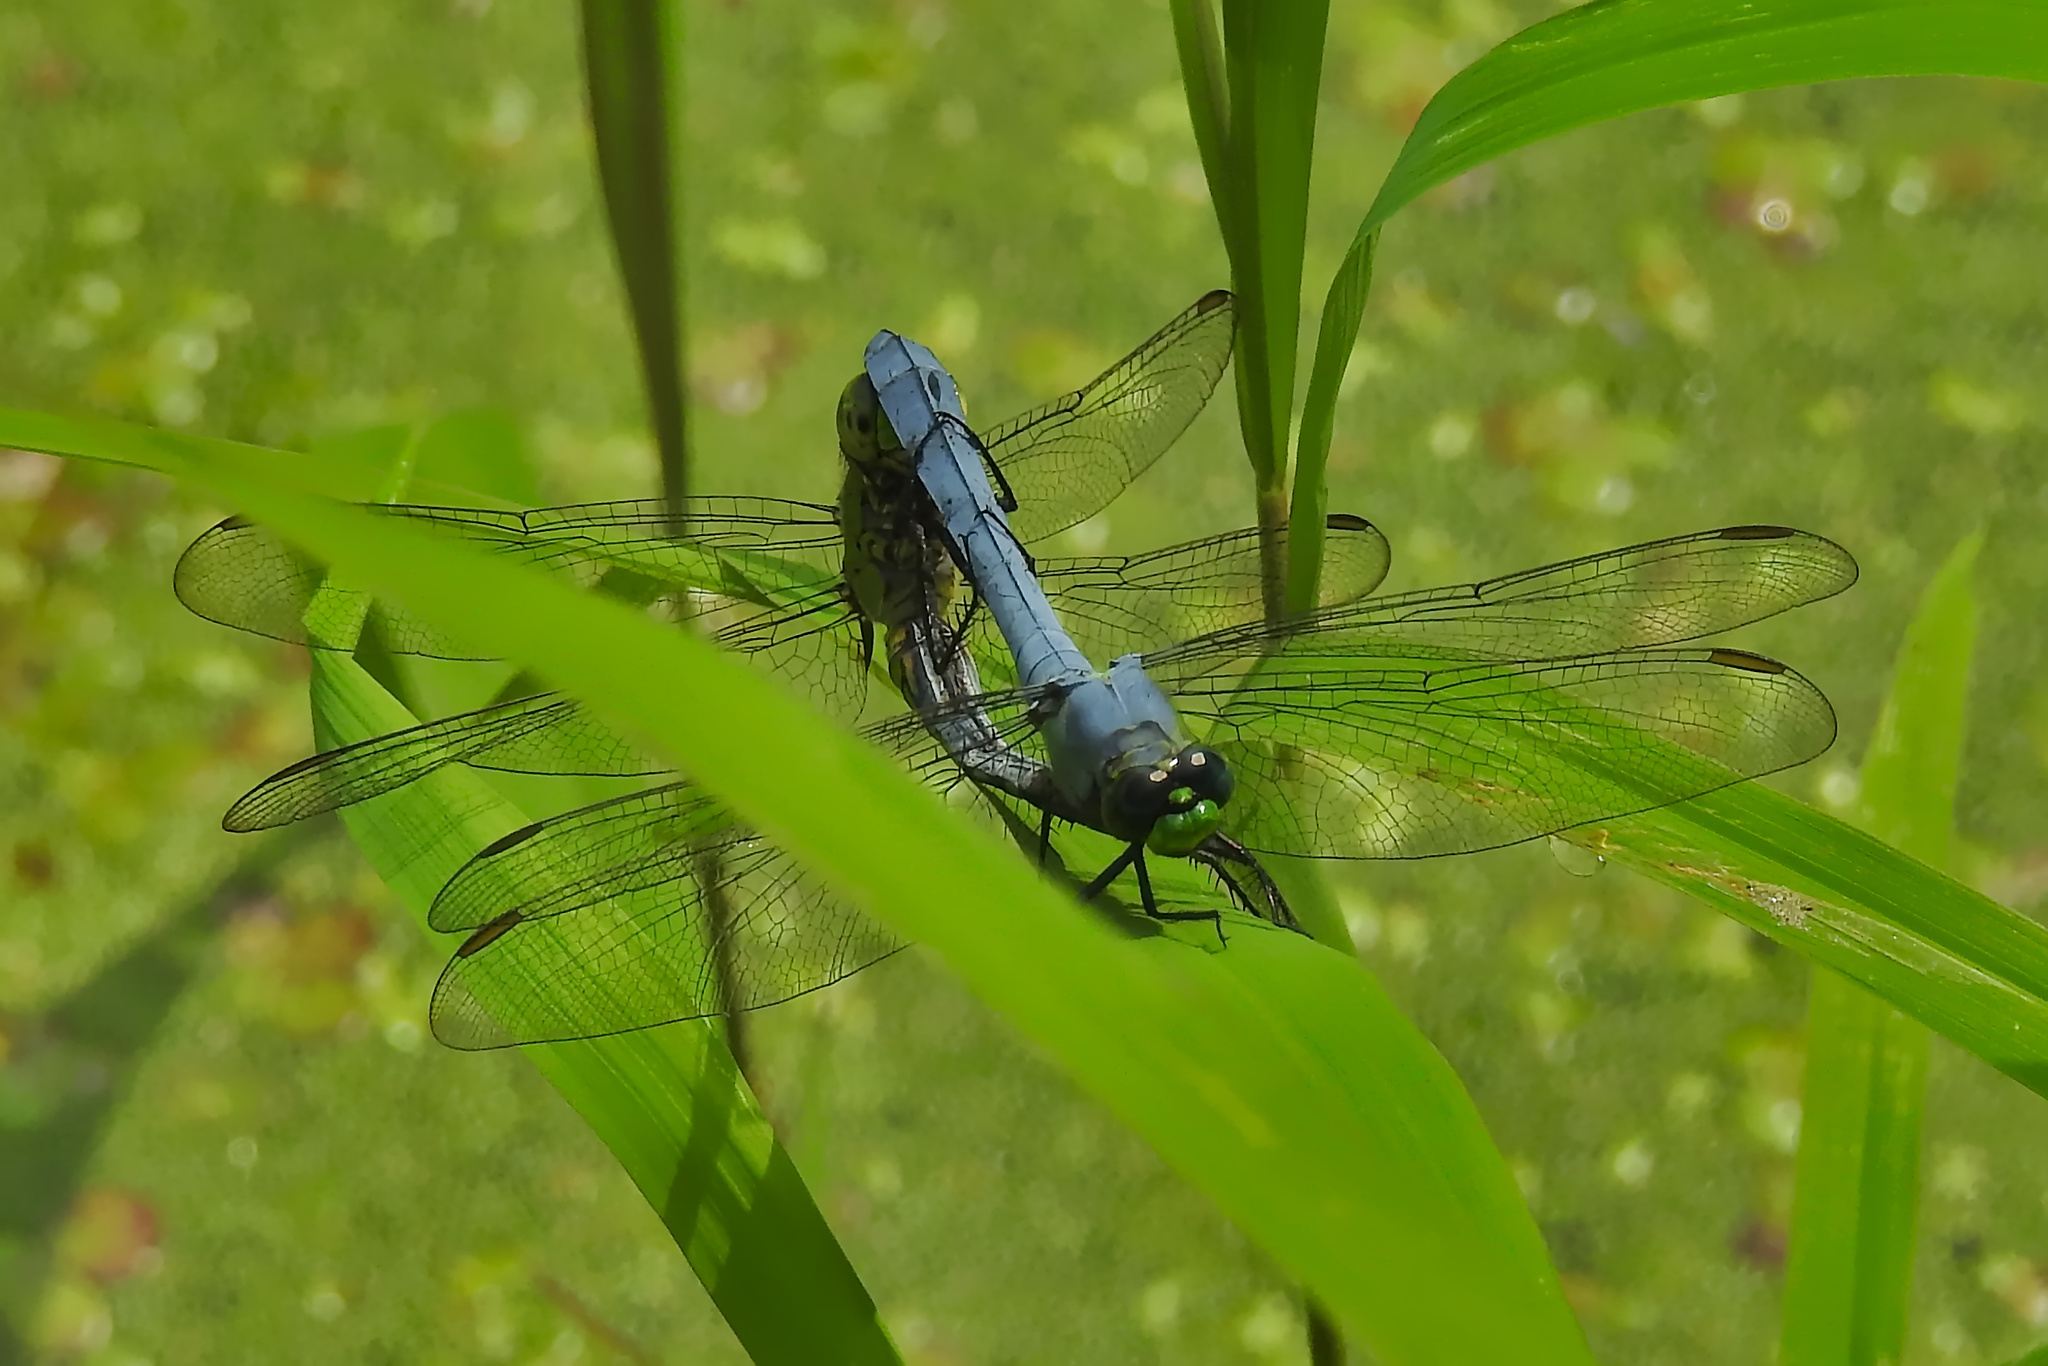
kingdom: Animalia
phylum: Arthropoda
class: Insecta
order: Odonata
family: Libellulidae
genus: Erythemis
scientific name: Erythemis simplicicollis
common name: Eastern pondhawk
